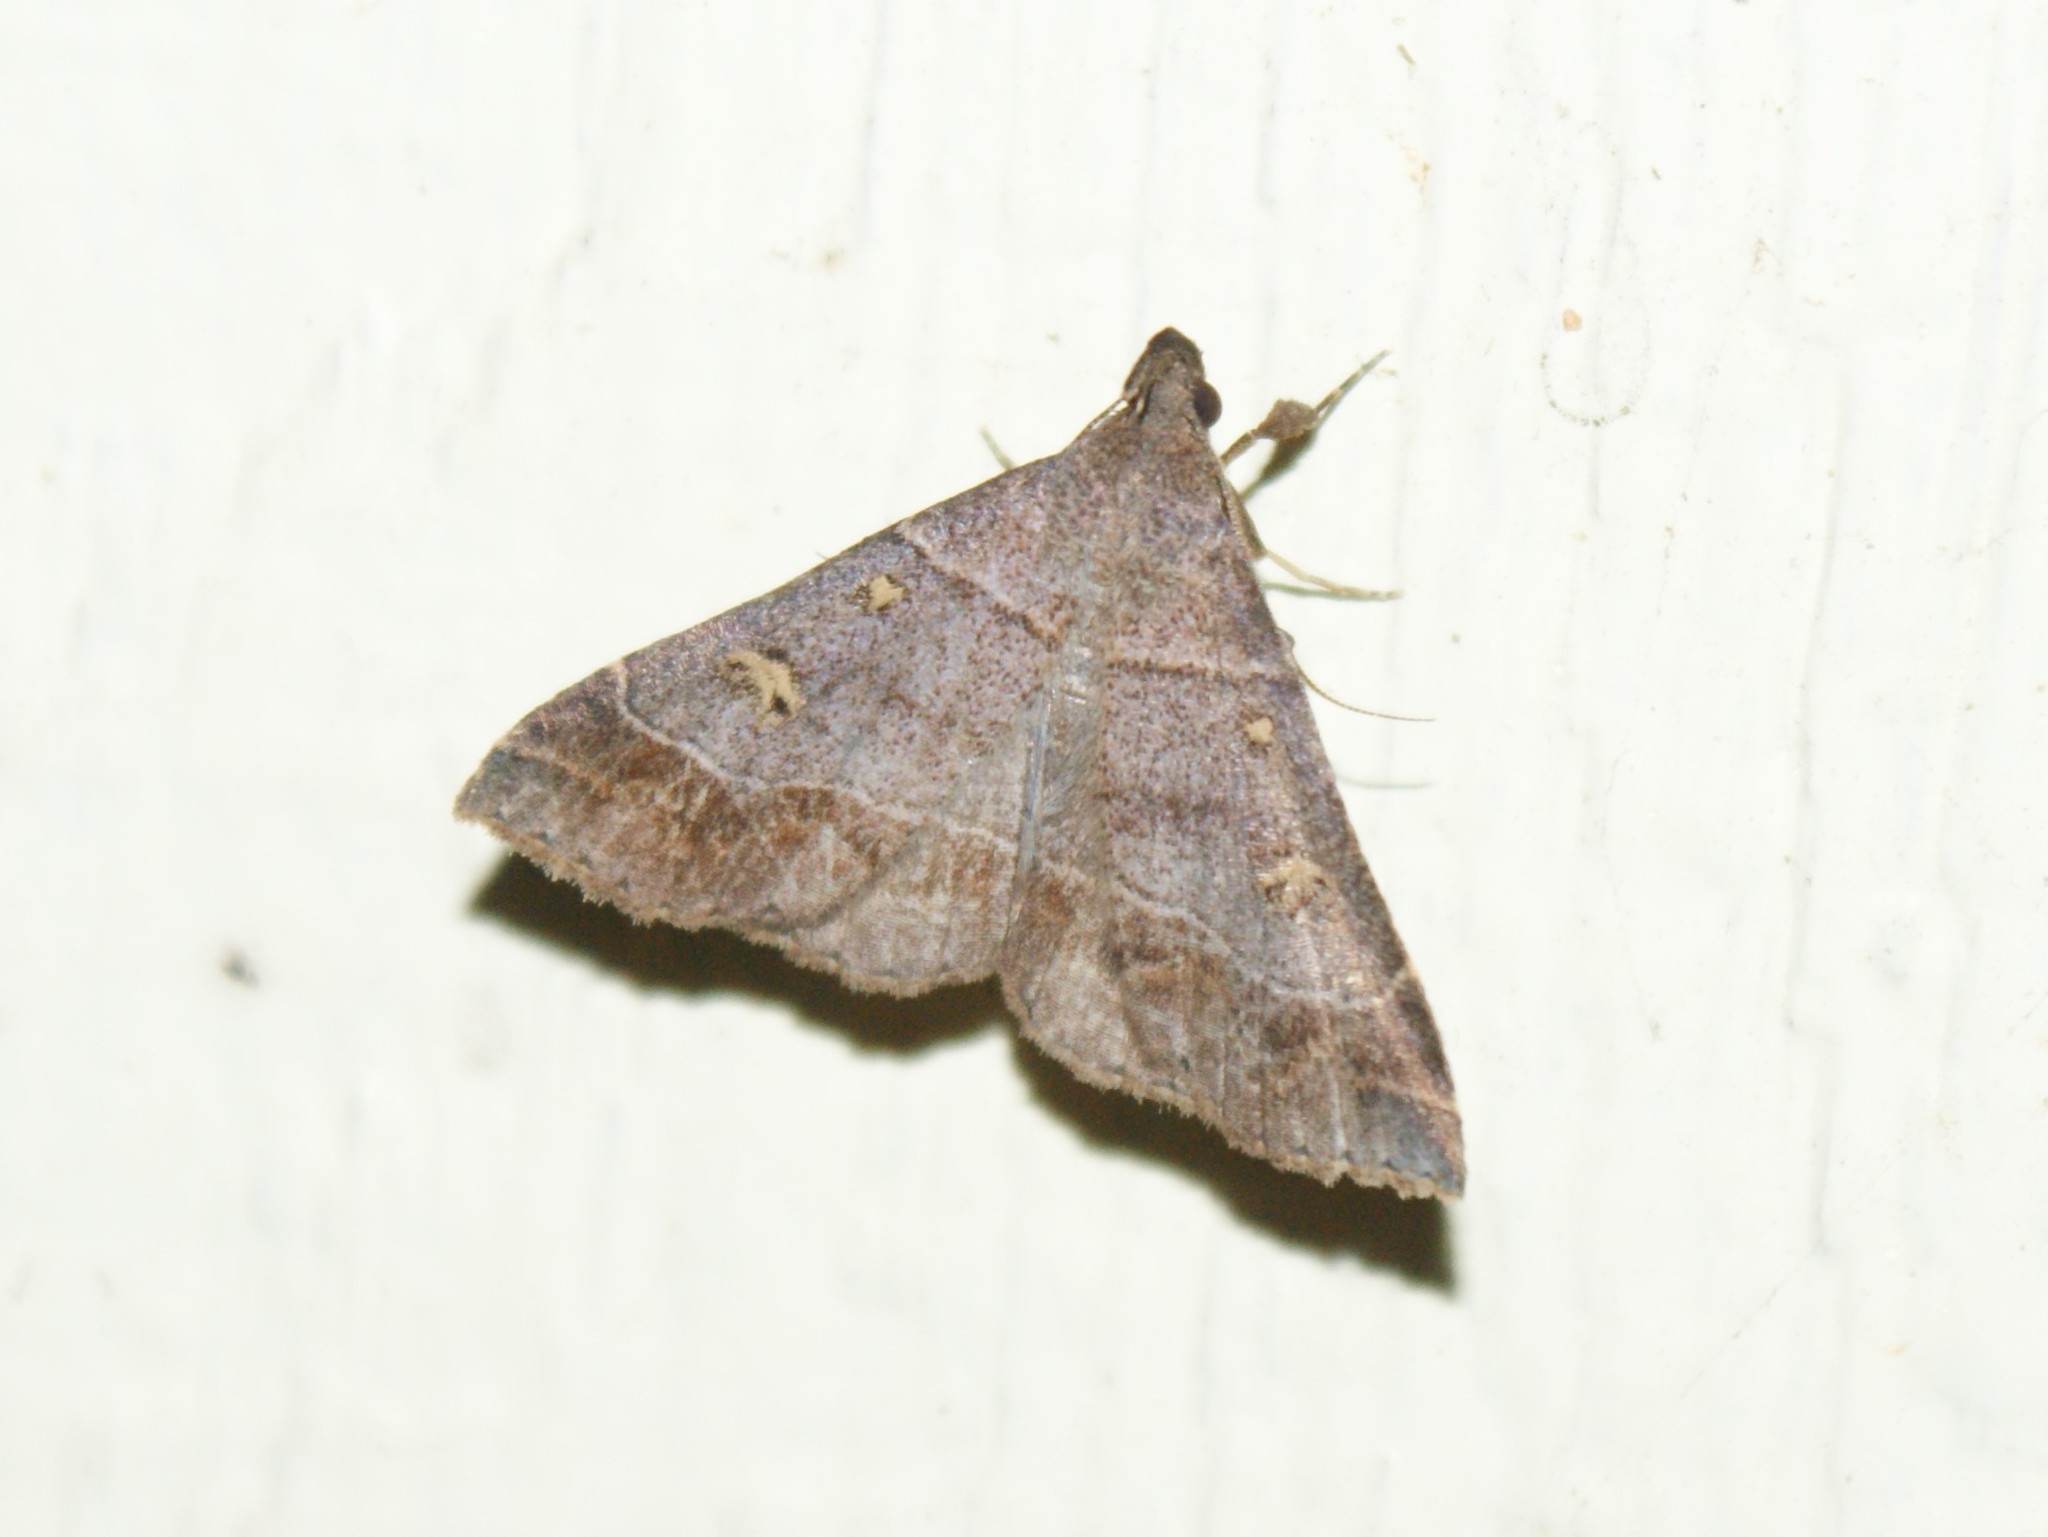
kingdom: Animalia
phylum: Arthropoda
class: Insecta
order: Lepidoptera
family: Erebidae
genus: Renia
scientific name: Renia flavipunctalis
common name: Yellow-spotted renia moth
